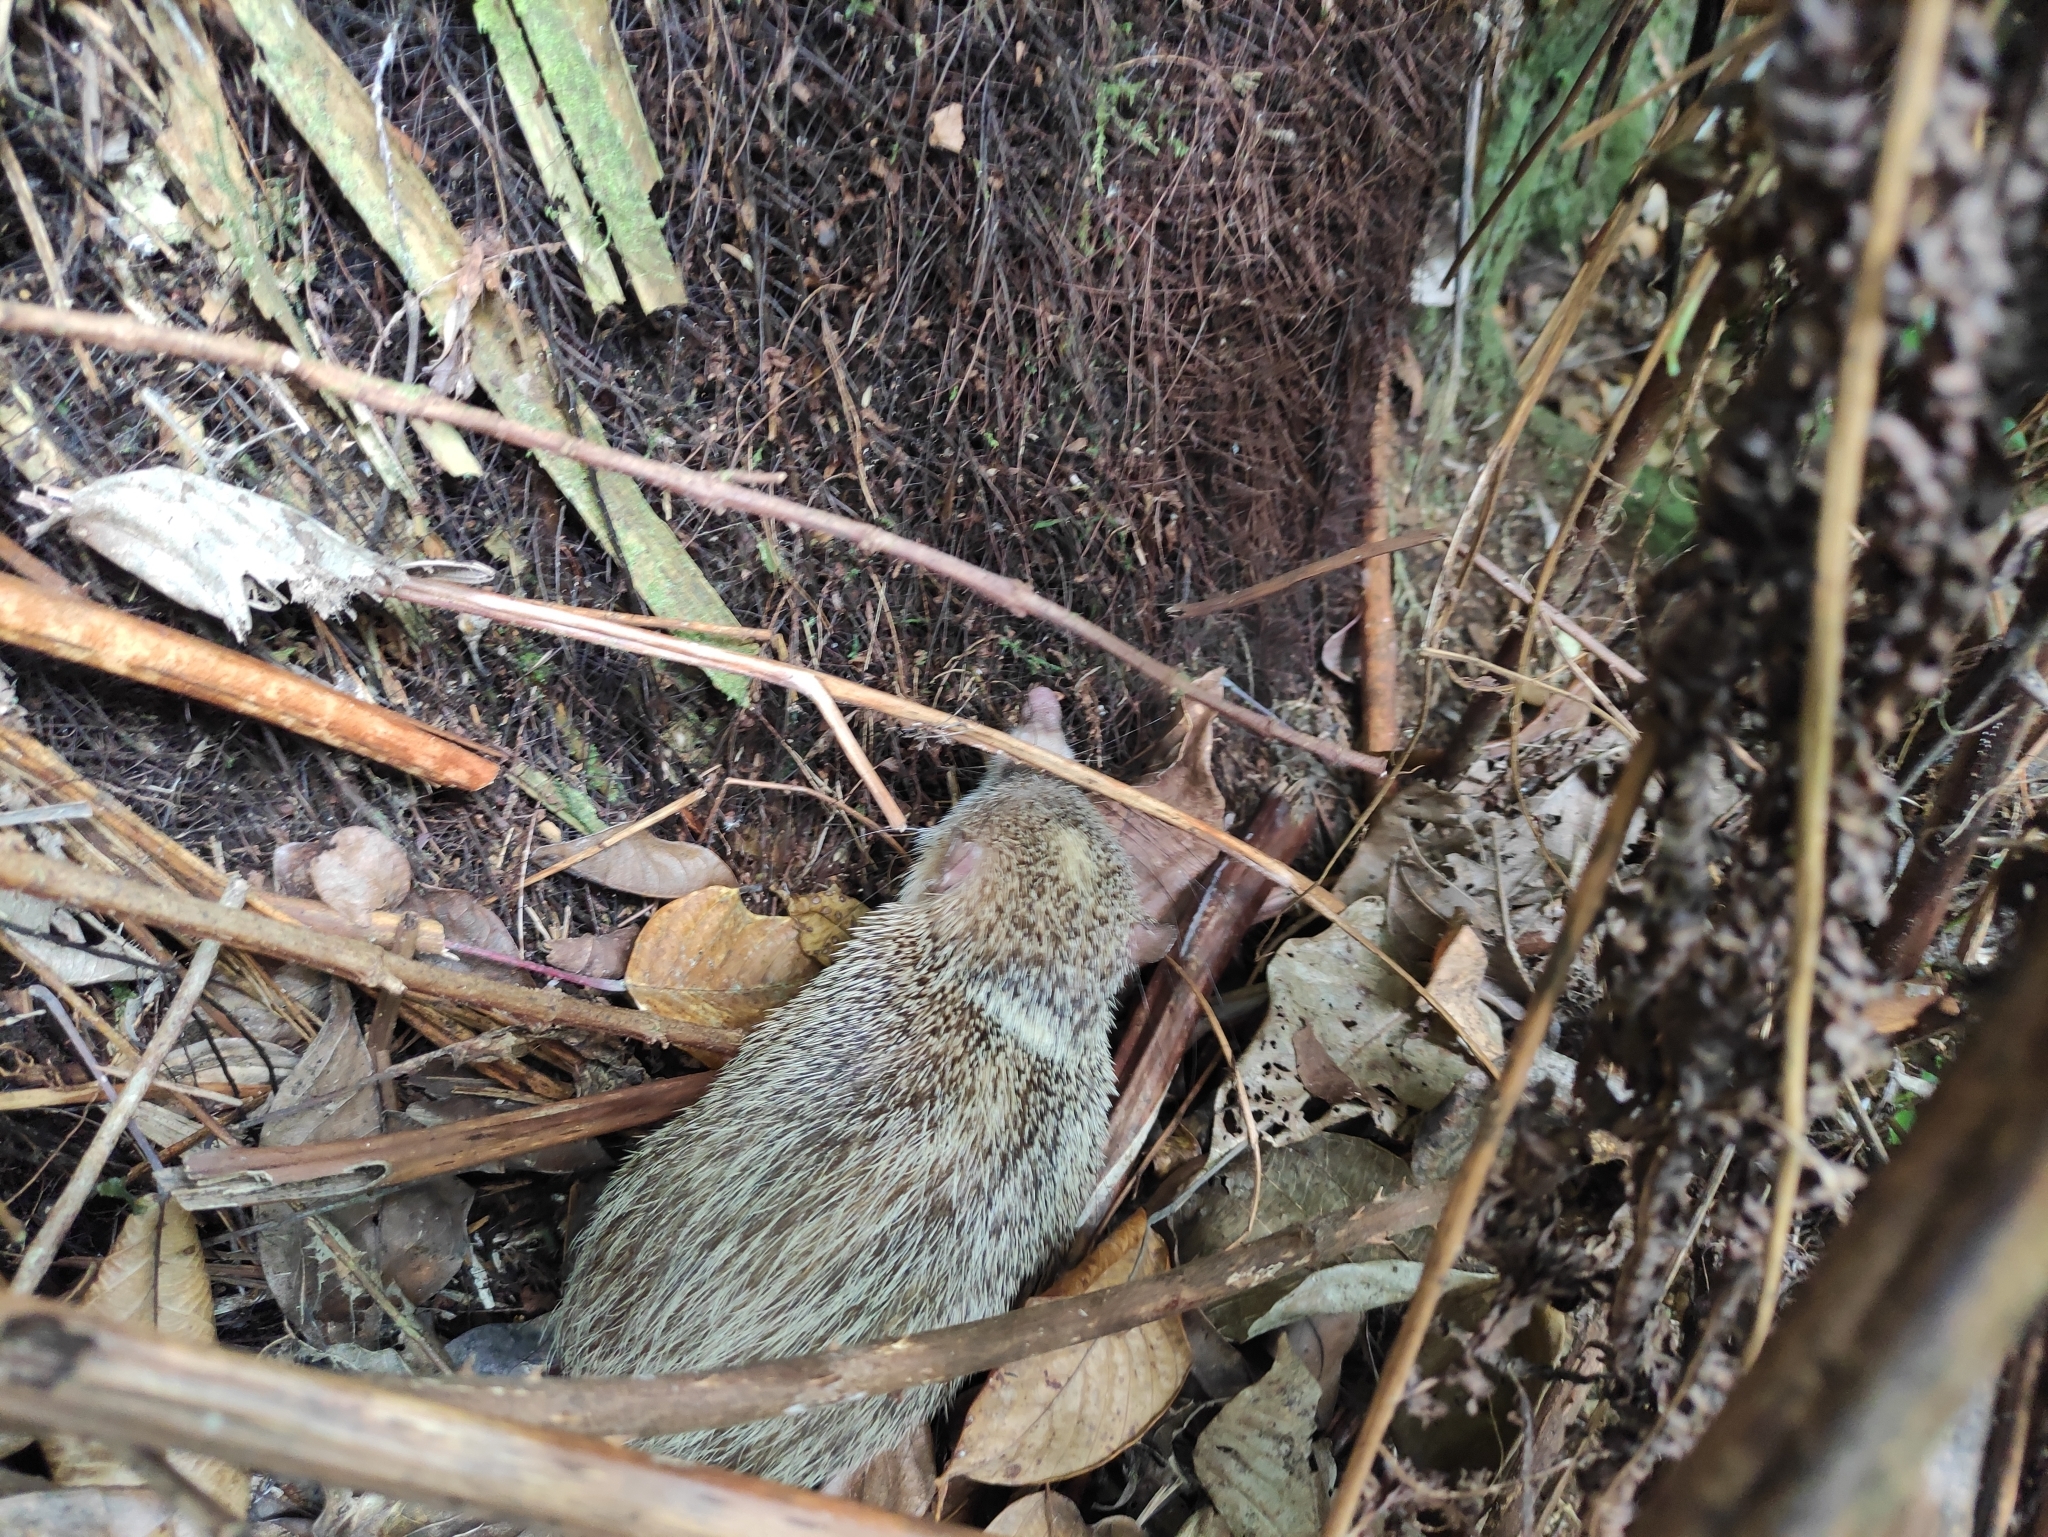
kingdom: Animalia
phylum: Chordata
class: Mammalia
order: Afrosoricida
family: Tenrecidae
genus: Tenrec
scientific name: Tenrec ecaudatus
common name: Common tenrec
